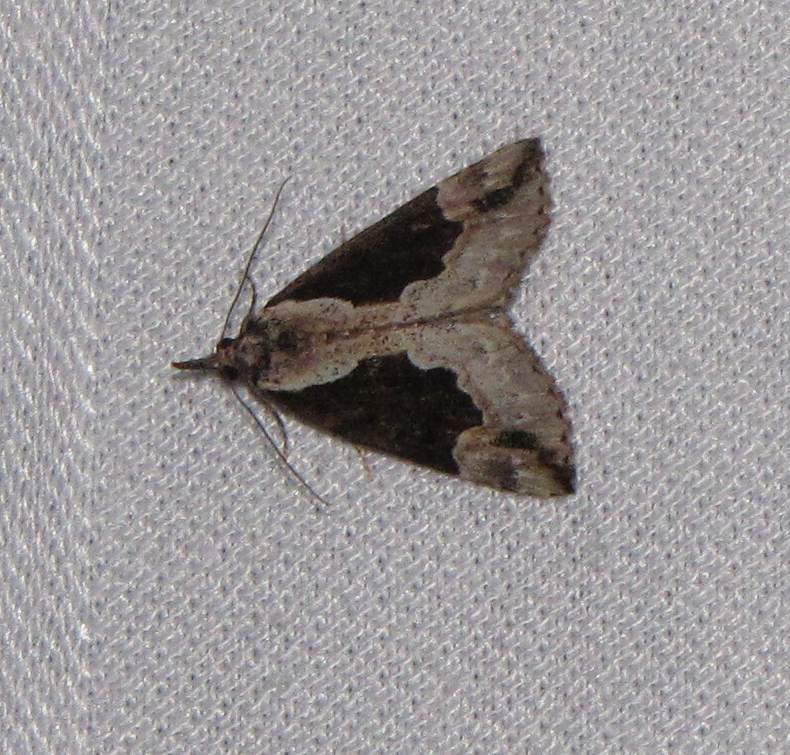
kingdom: Animalia
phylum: Arthropoda
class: Insecta
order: Lepidoptera
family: Erebidae
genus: Hypena
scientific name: Hypena baltimoralis
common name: Baltimore snout
